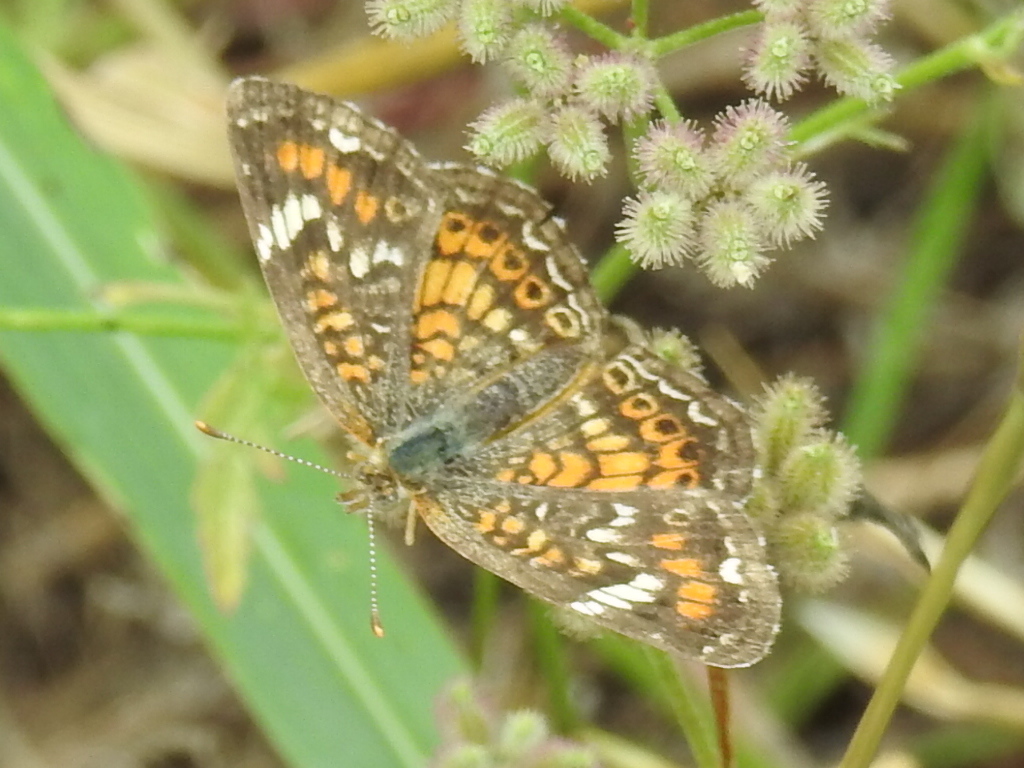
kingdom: Animalia
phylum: Arthropoda
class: Insecta
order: Lepidoptera
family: Nymphalidae
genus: Phyciodes
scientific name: Phyciodes phaon
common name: Phaon crescent
